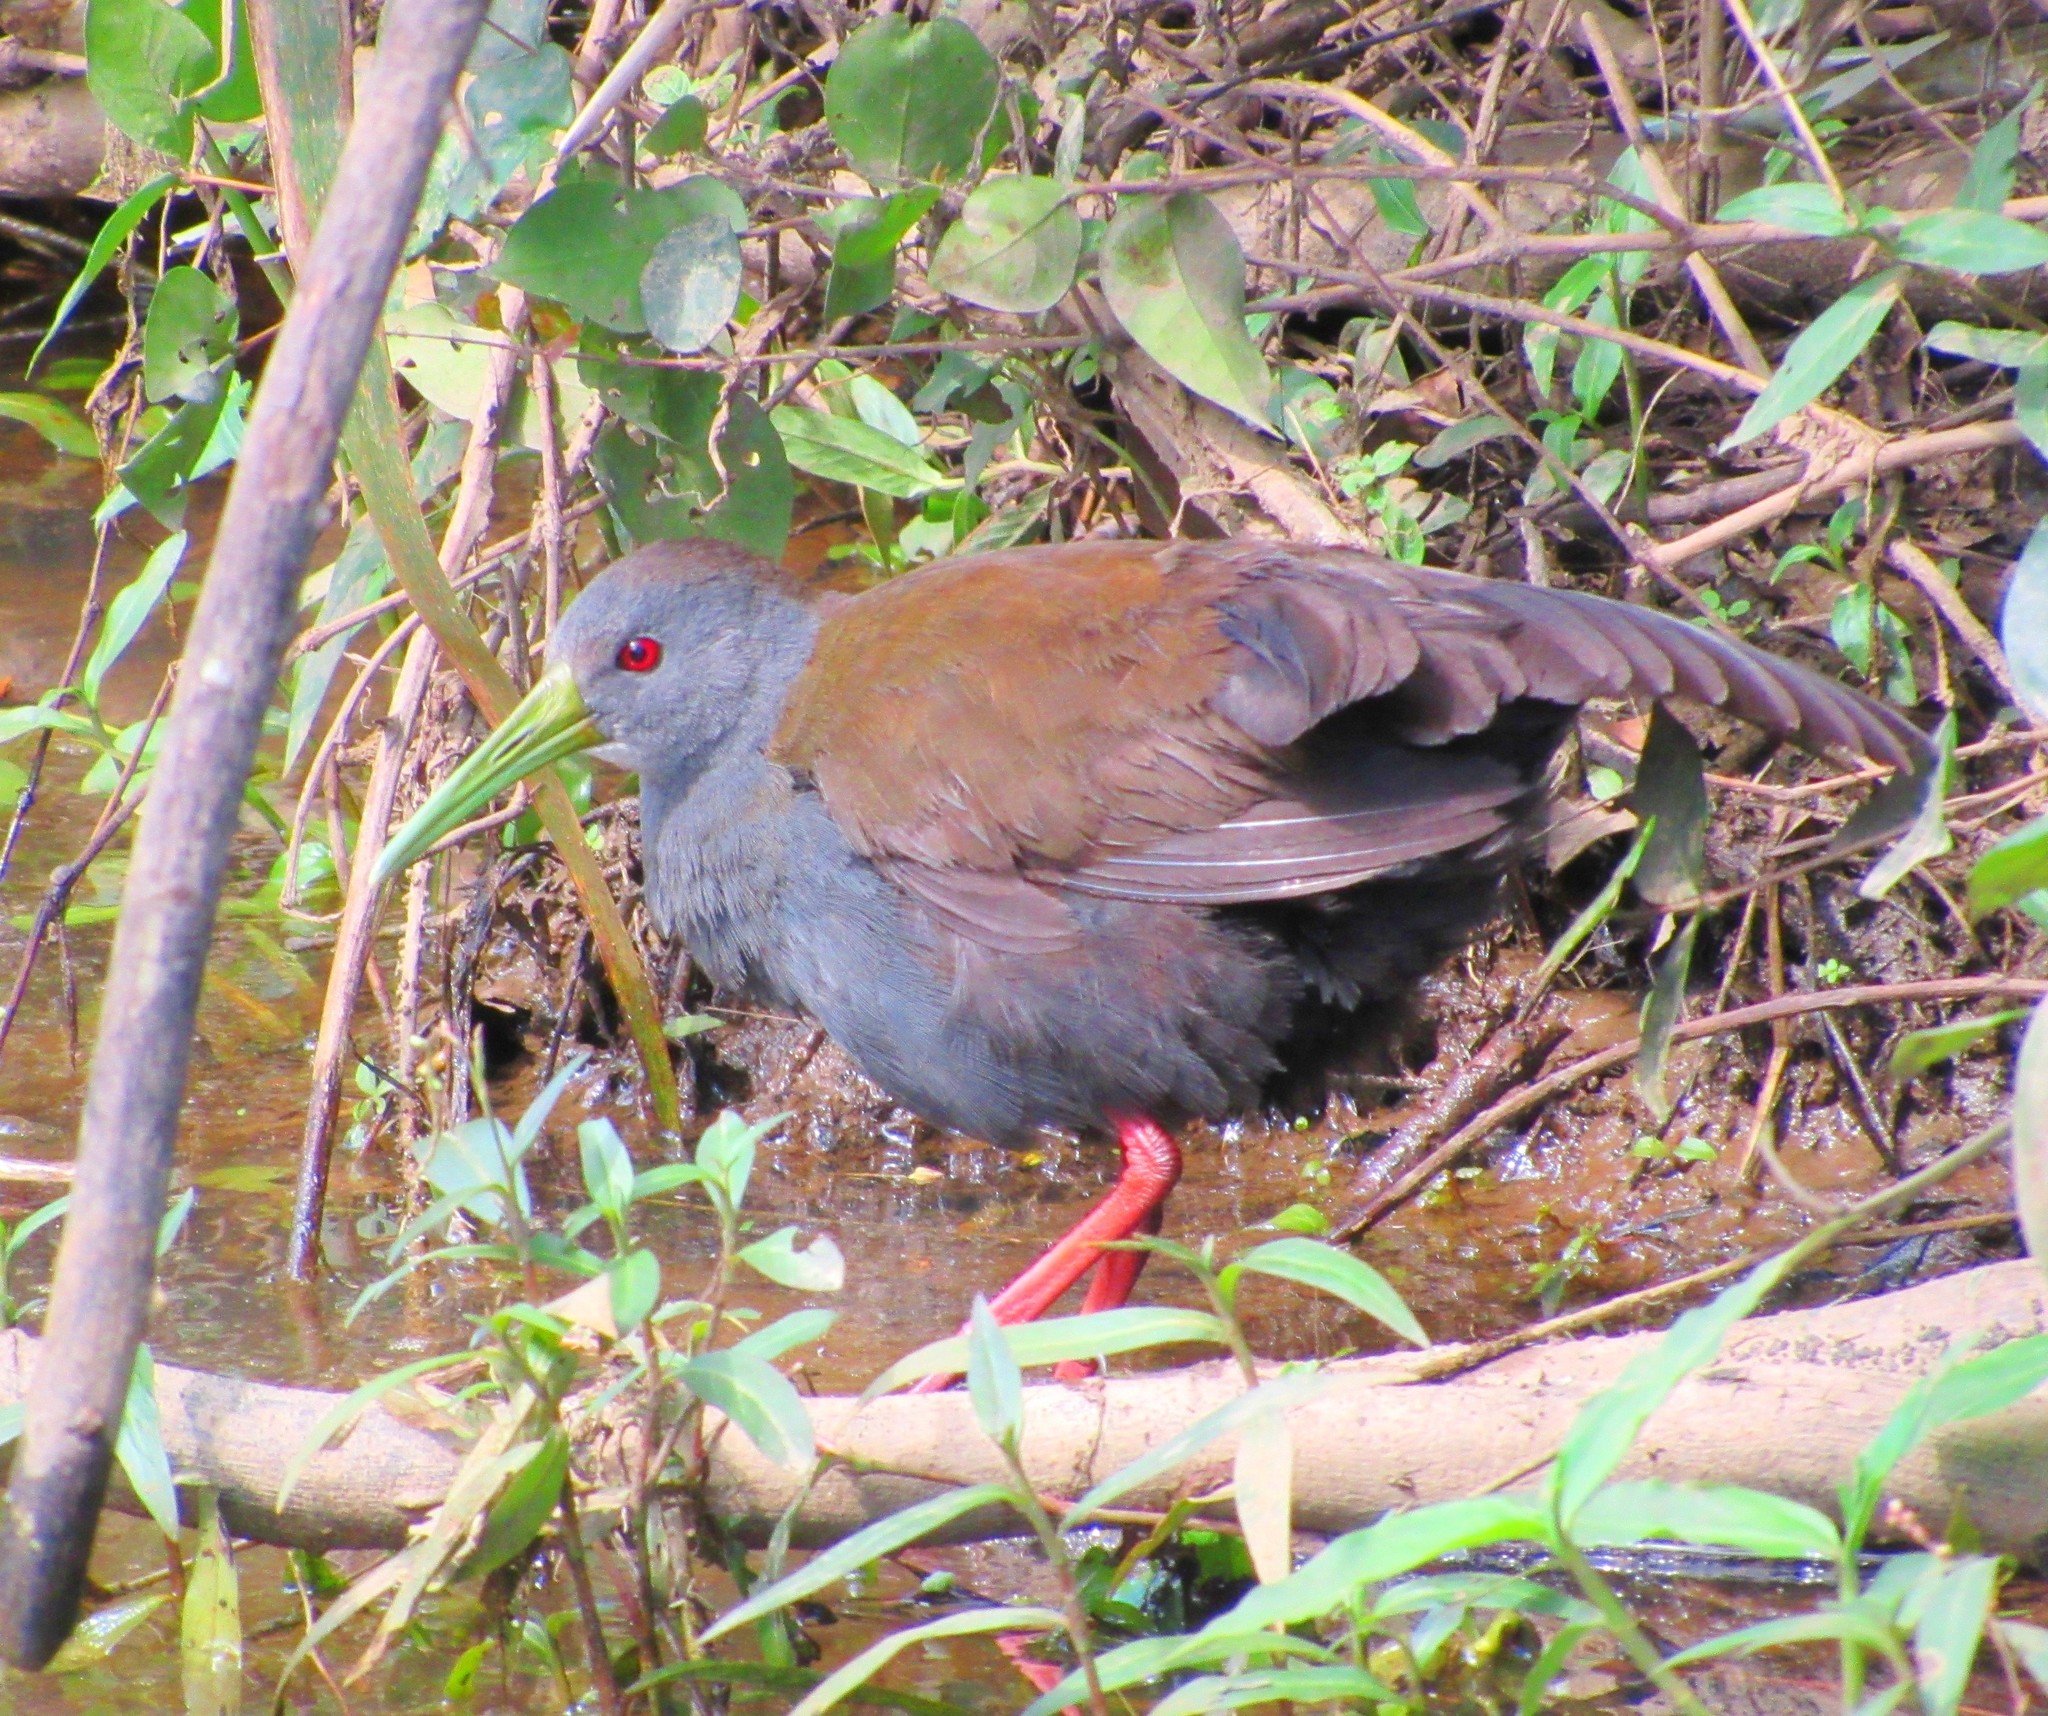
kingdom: Animalia
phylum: Chordata
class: Aves
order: Gruiformes
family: Rallidae
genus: Pardirallus
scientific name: Pardirallus nigricans
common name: Blackish rail
